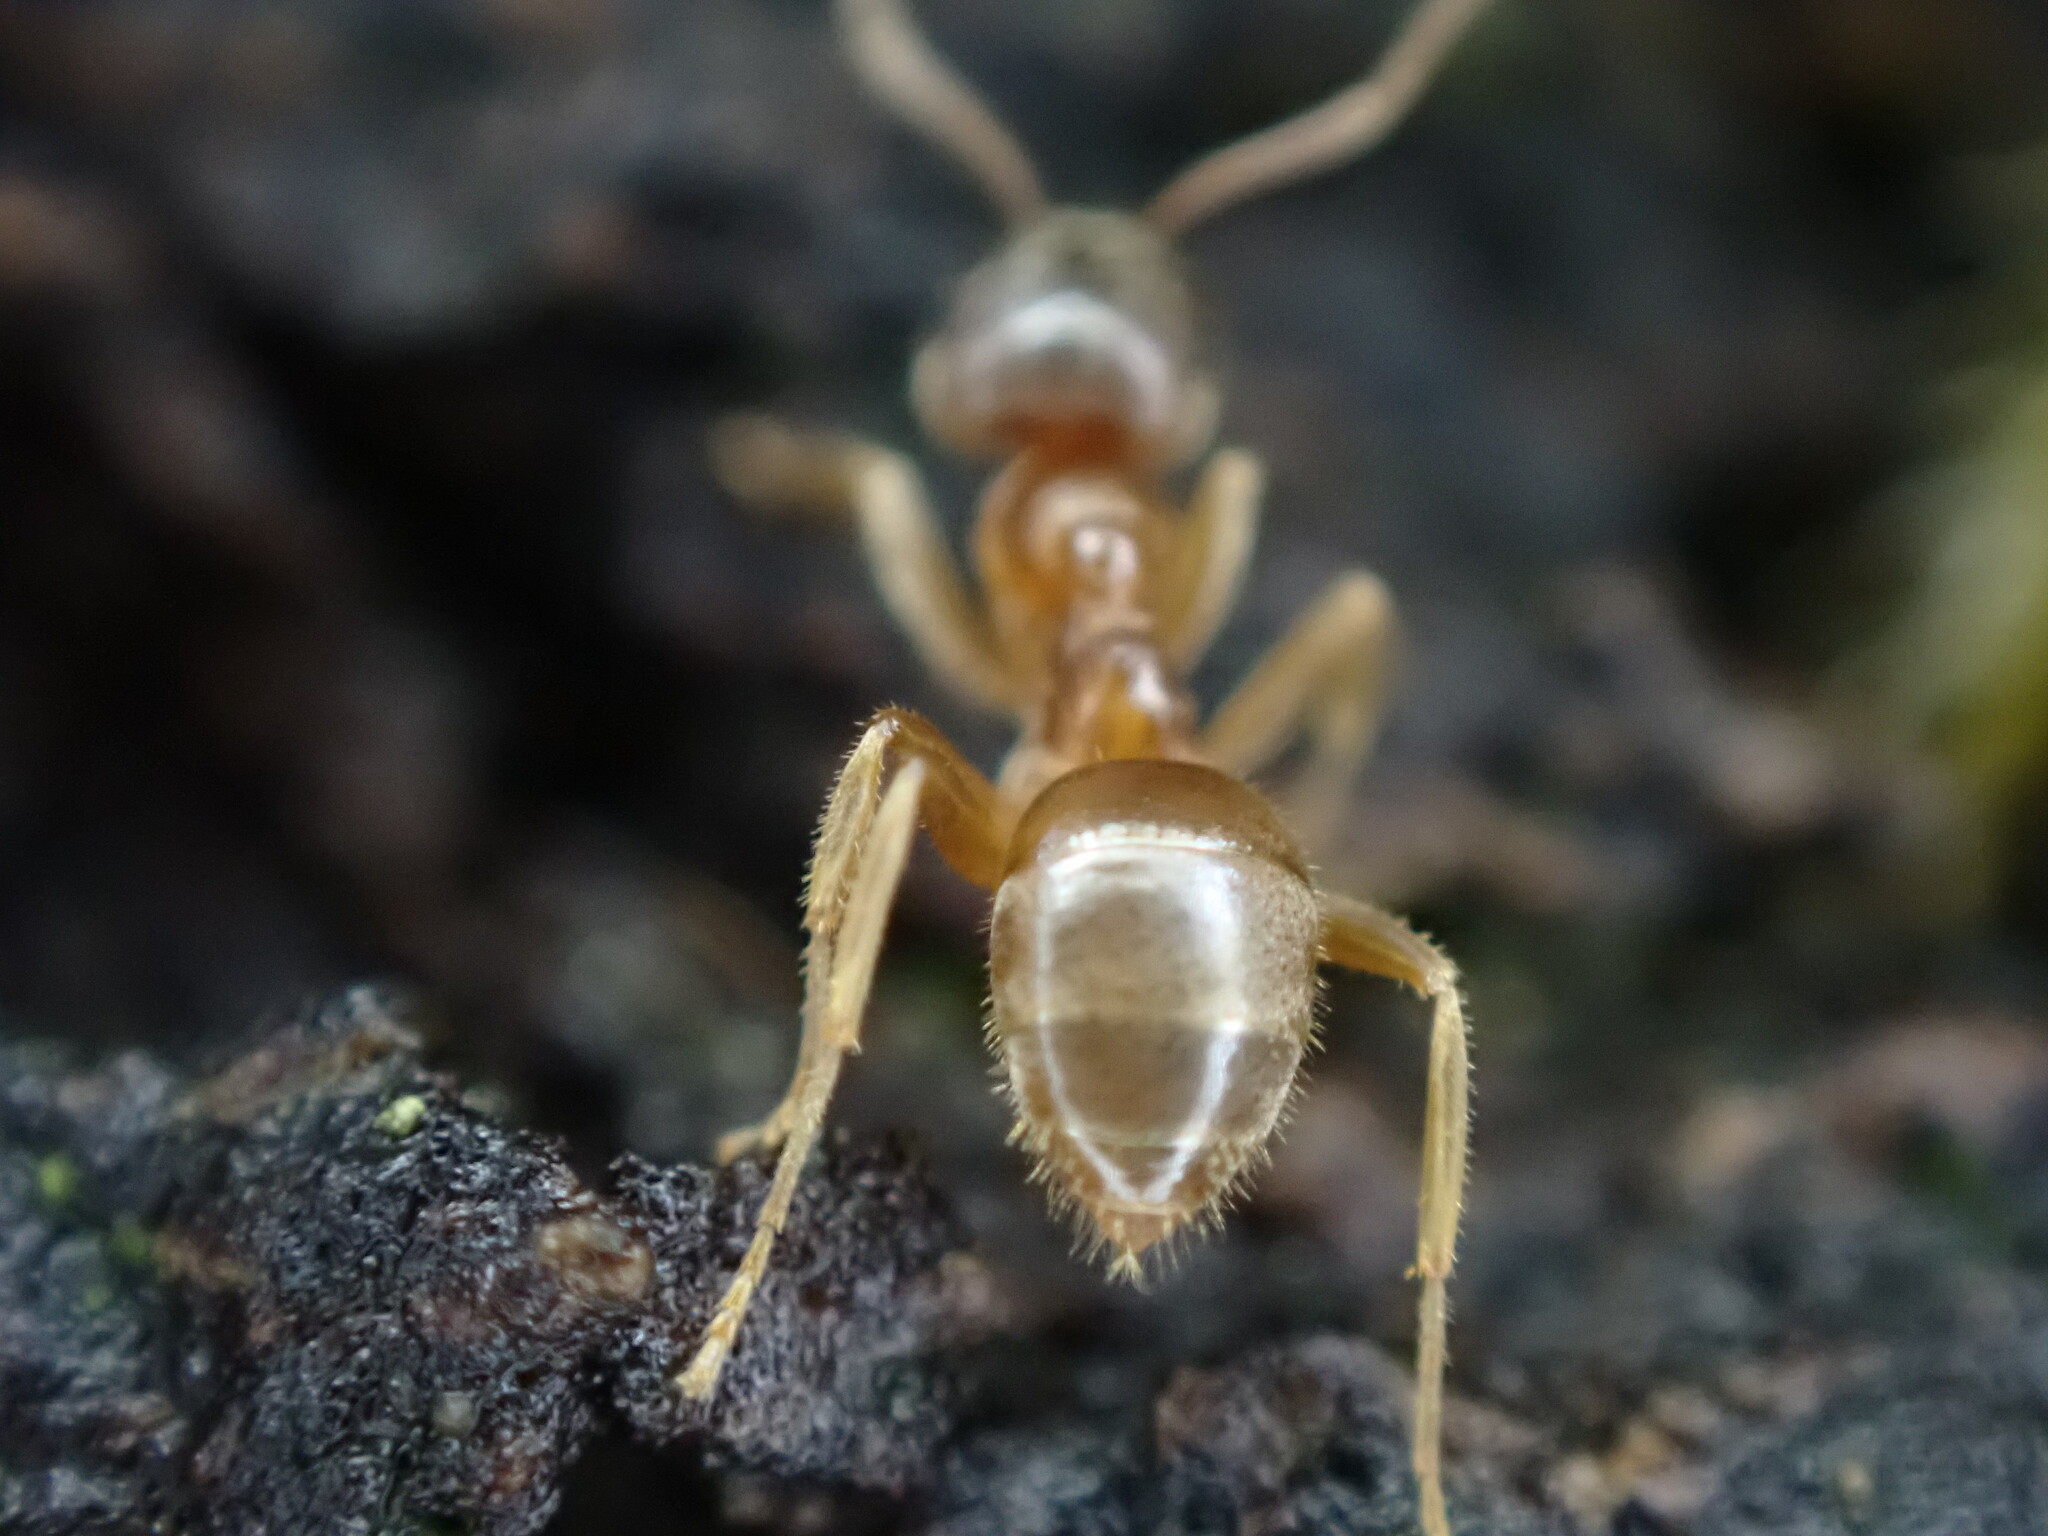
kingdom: Animalia
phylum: Arthropoda
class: Insecta
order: Hymenoptera
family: Formicidae
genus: Lasius
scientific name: Lasius pallitarsis
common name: Subterranean aphid-tending ant
